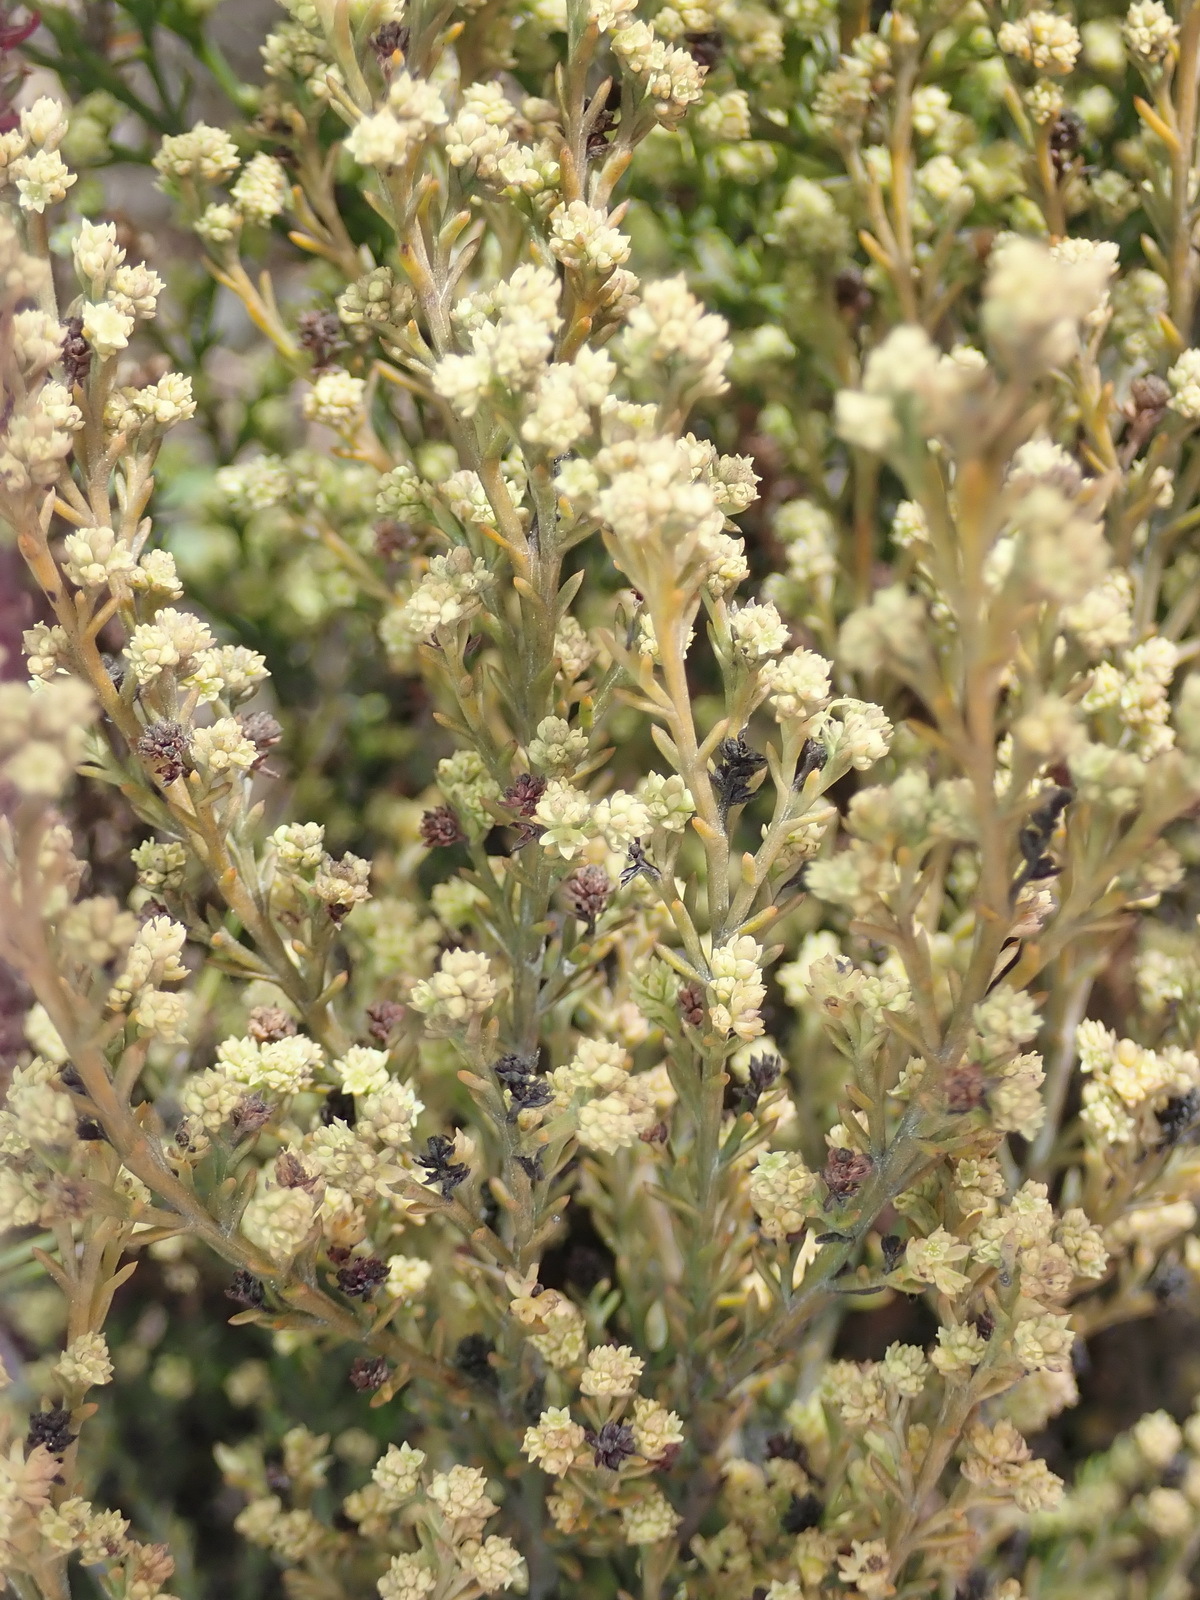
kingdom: Plantae
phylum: Tracheophyta
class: Magnoliopsida
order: Santalales
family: Thesiaceae
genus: Thesium
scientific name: Thesium ericiifolium
